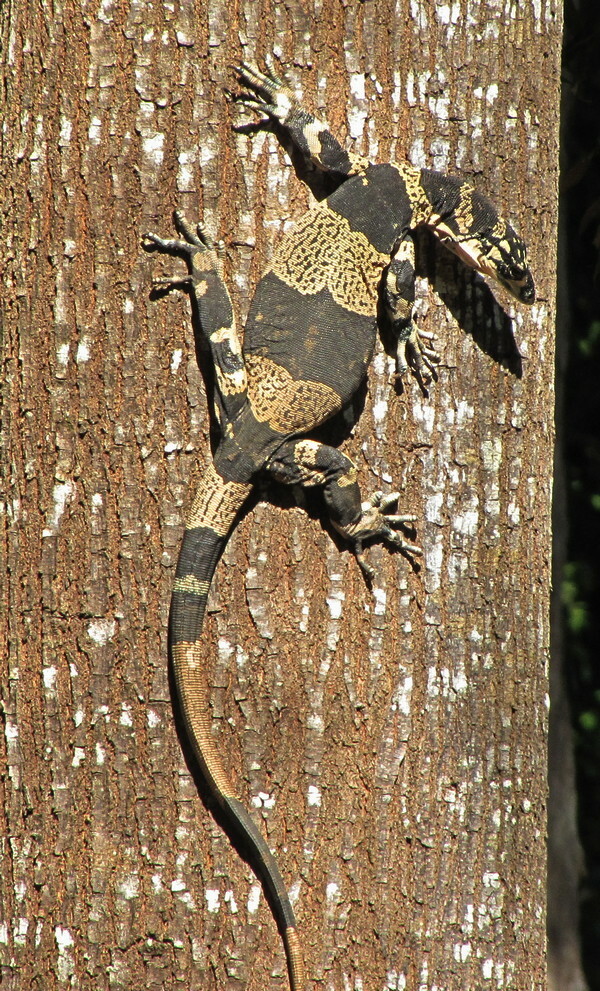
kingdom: Animalia
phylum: Chordata
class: Squamata
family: Varanidae
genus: Varanus
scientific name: Varanus varius
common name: Lace monitor
